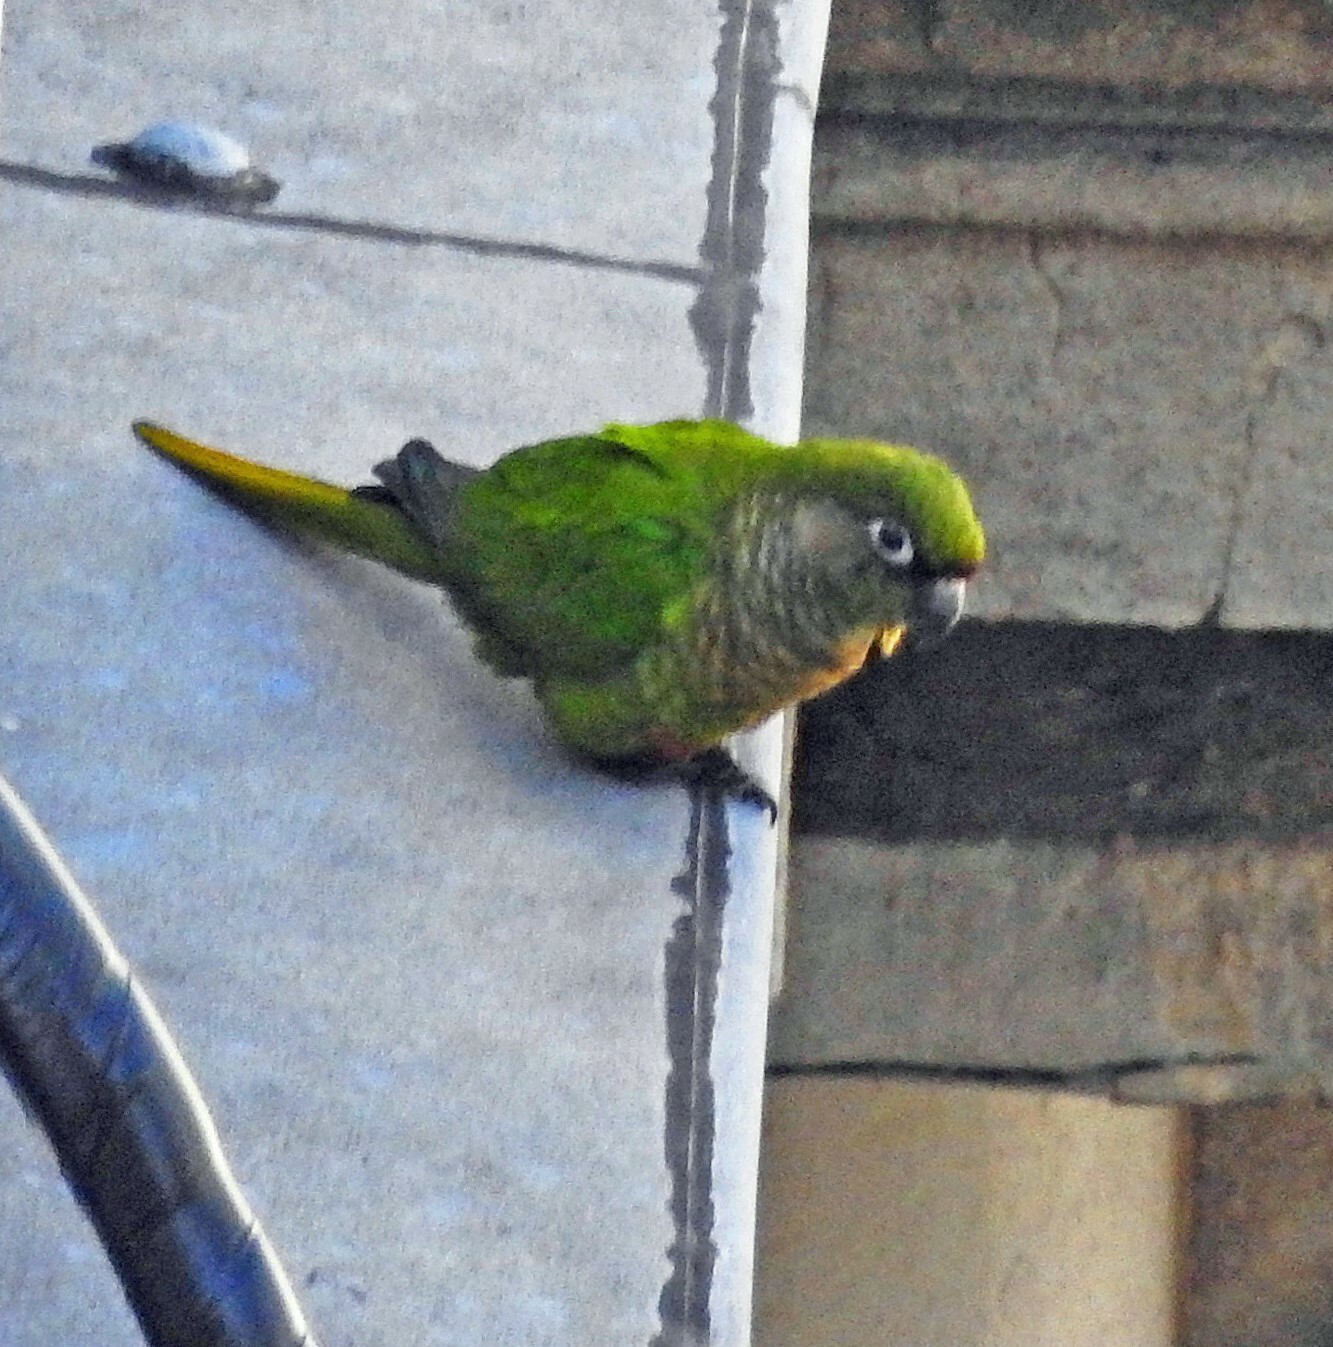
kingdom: Animalia
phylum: Chordata
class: Aves
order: Psittaciformes
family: Psittacidae
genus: Pyrrhura
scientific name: Pyrrhura frontalis
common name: Maroon-bellied parakeet
